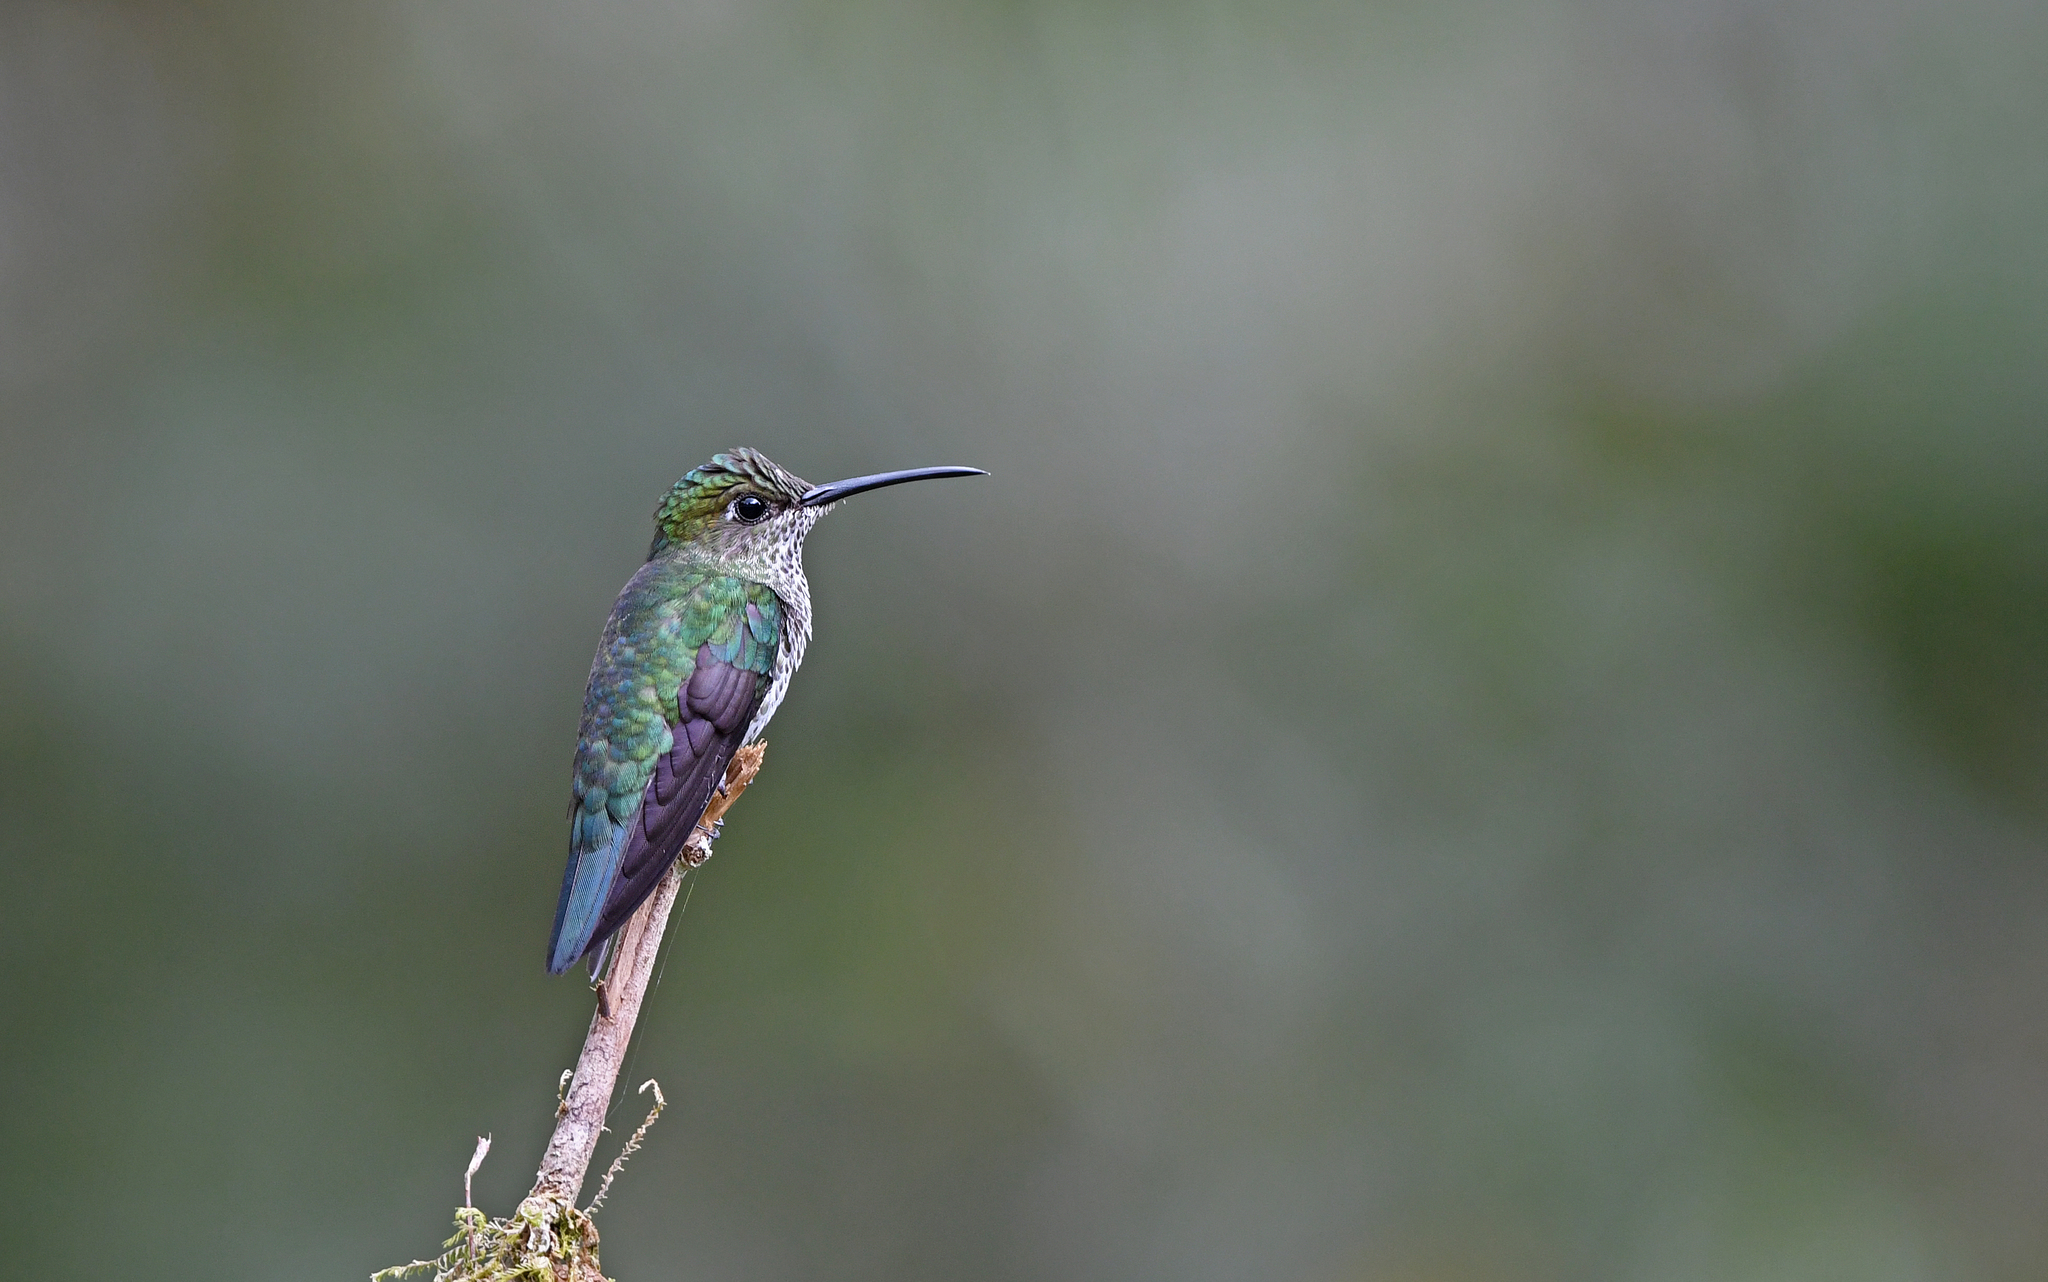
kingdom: Animalia
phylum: Chordata
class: Aves
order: Apodiformes
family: Trochilidae
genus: Taphrospilus
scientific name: Taphrospilus hypostictus
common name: Many-spotted hummingbird
